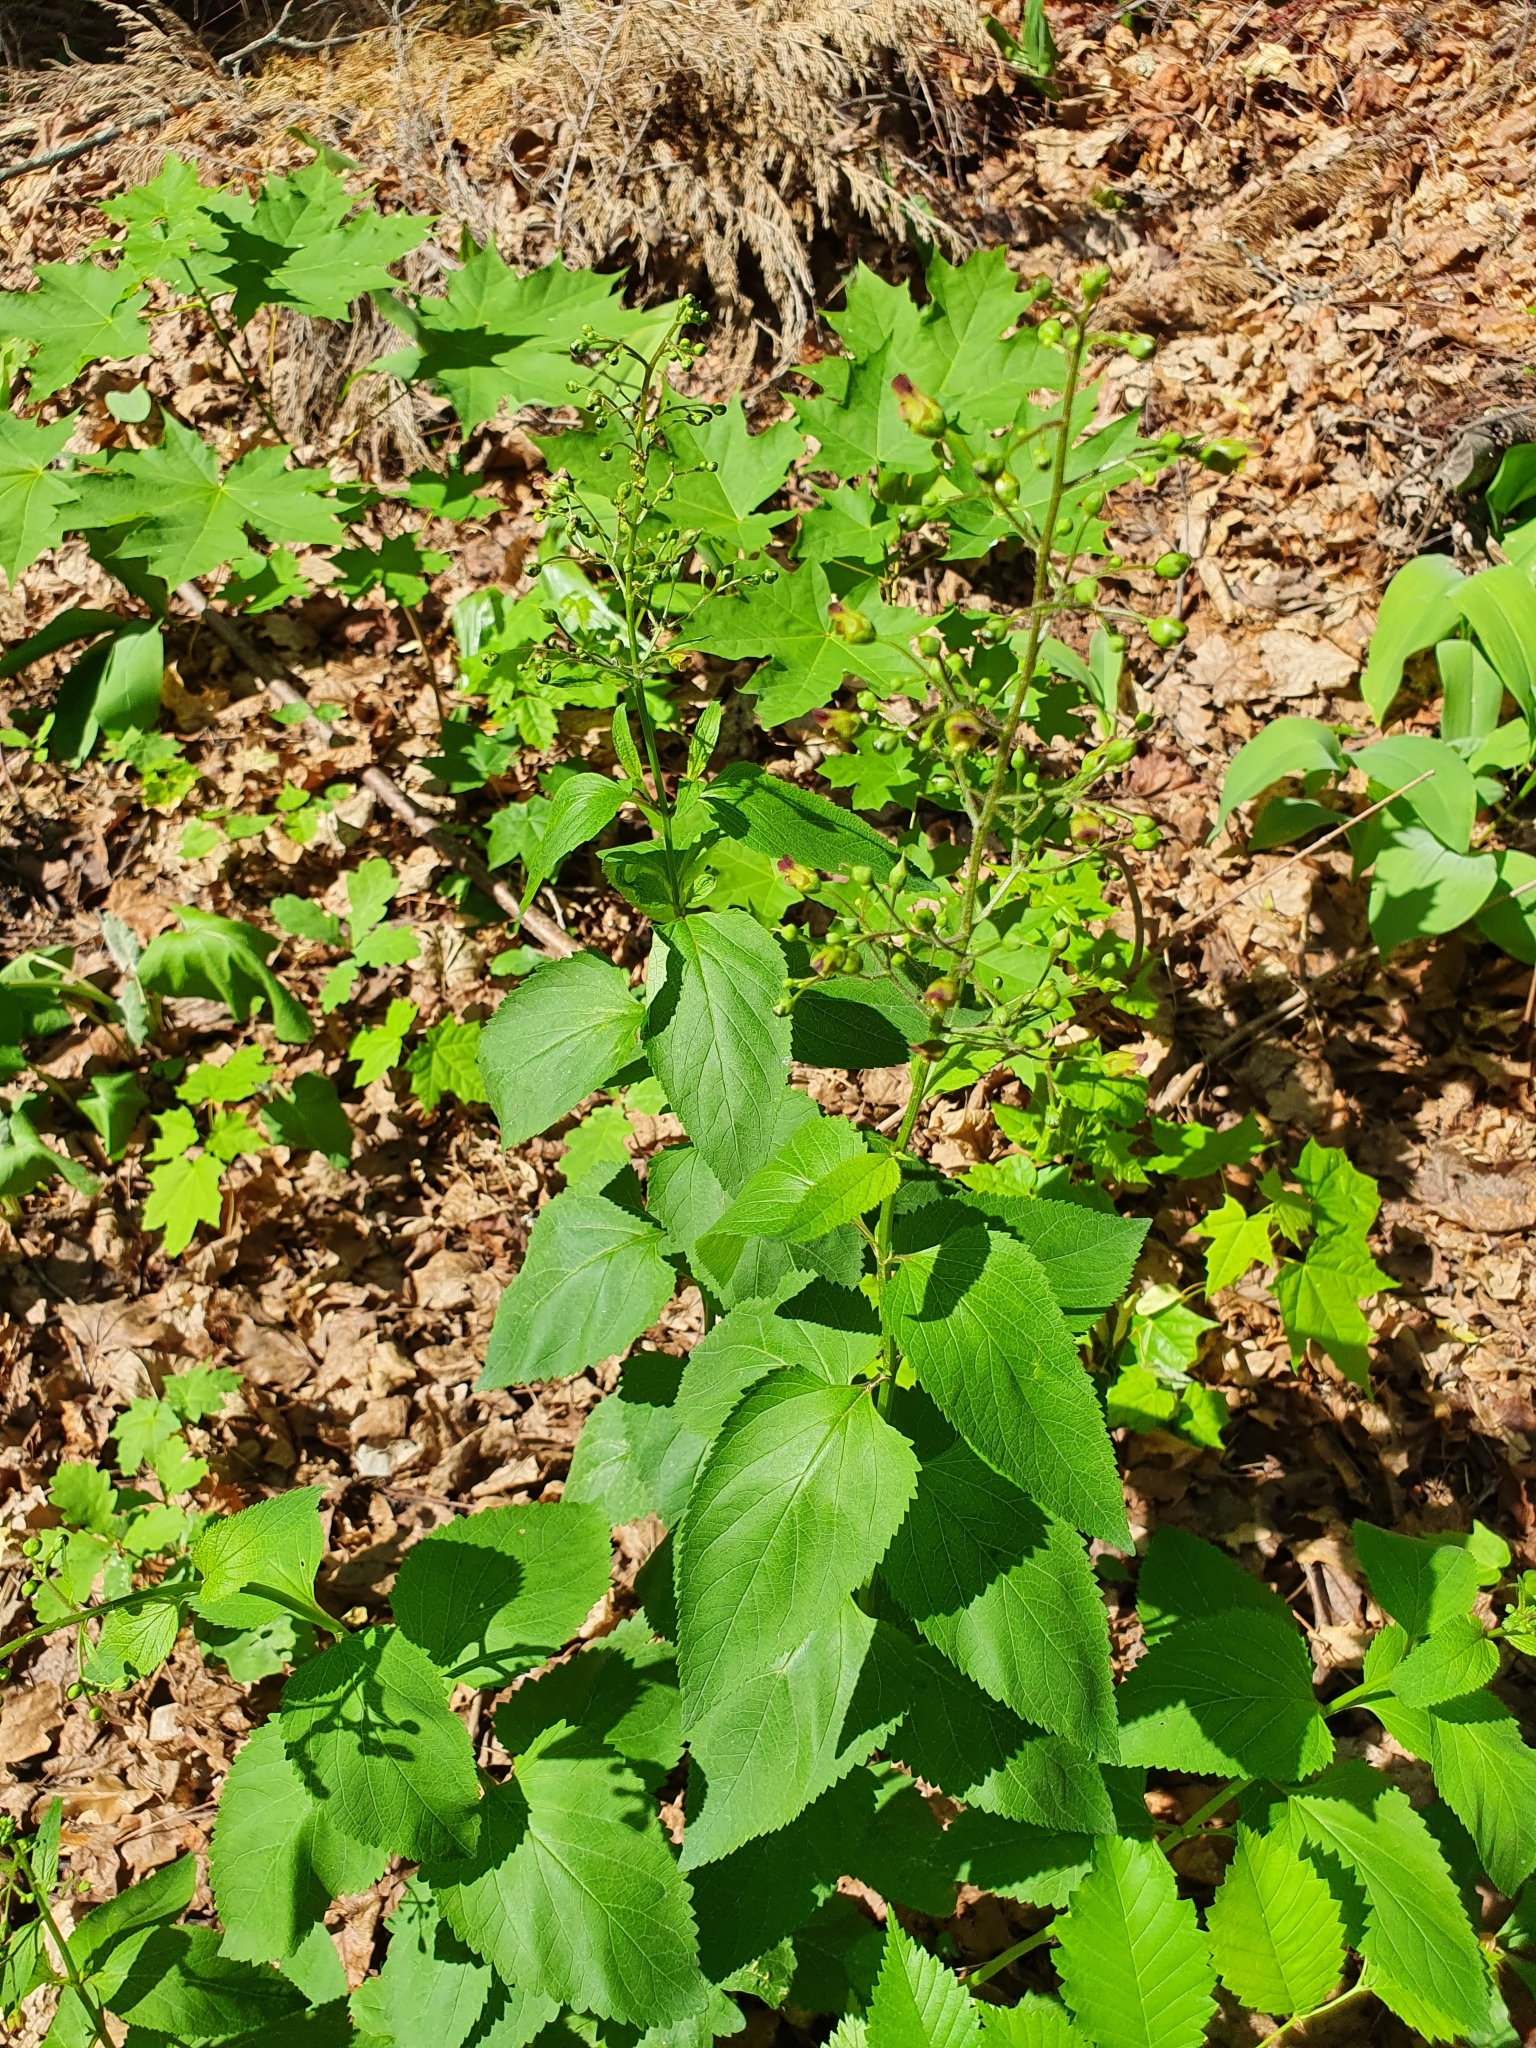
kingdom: Plantae
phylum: Tracheophyta
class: Magnoliopsida
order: Lamiales
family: Scrophulariaceae
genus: Scrophularia
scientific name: Scrophularia nodosa
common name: Common figwort
